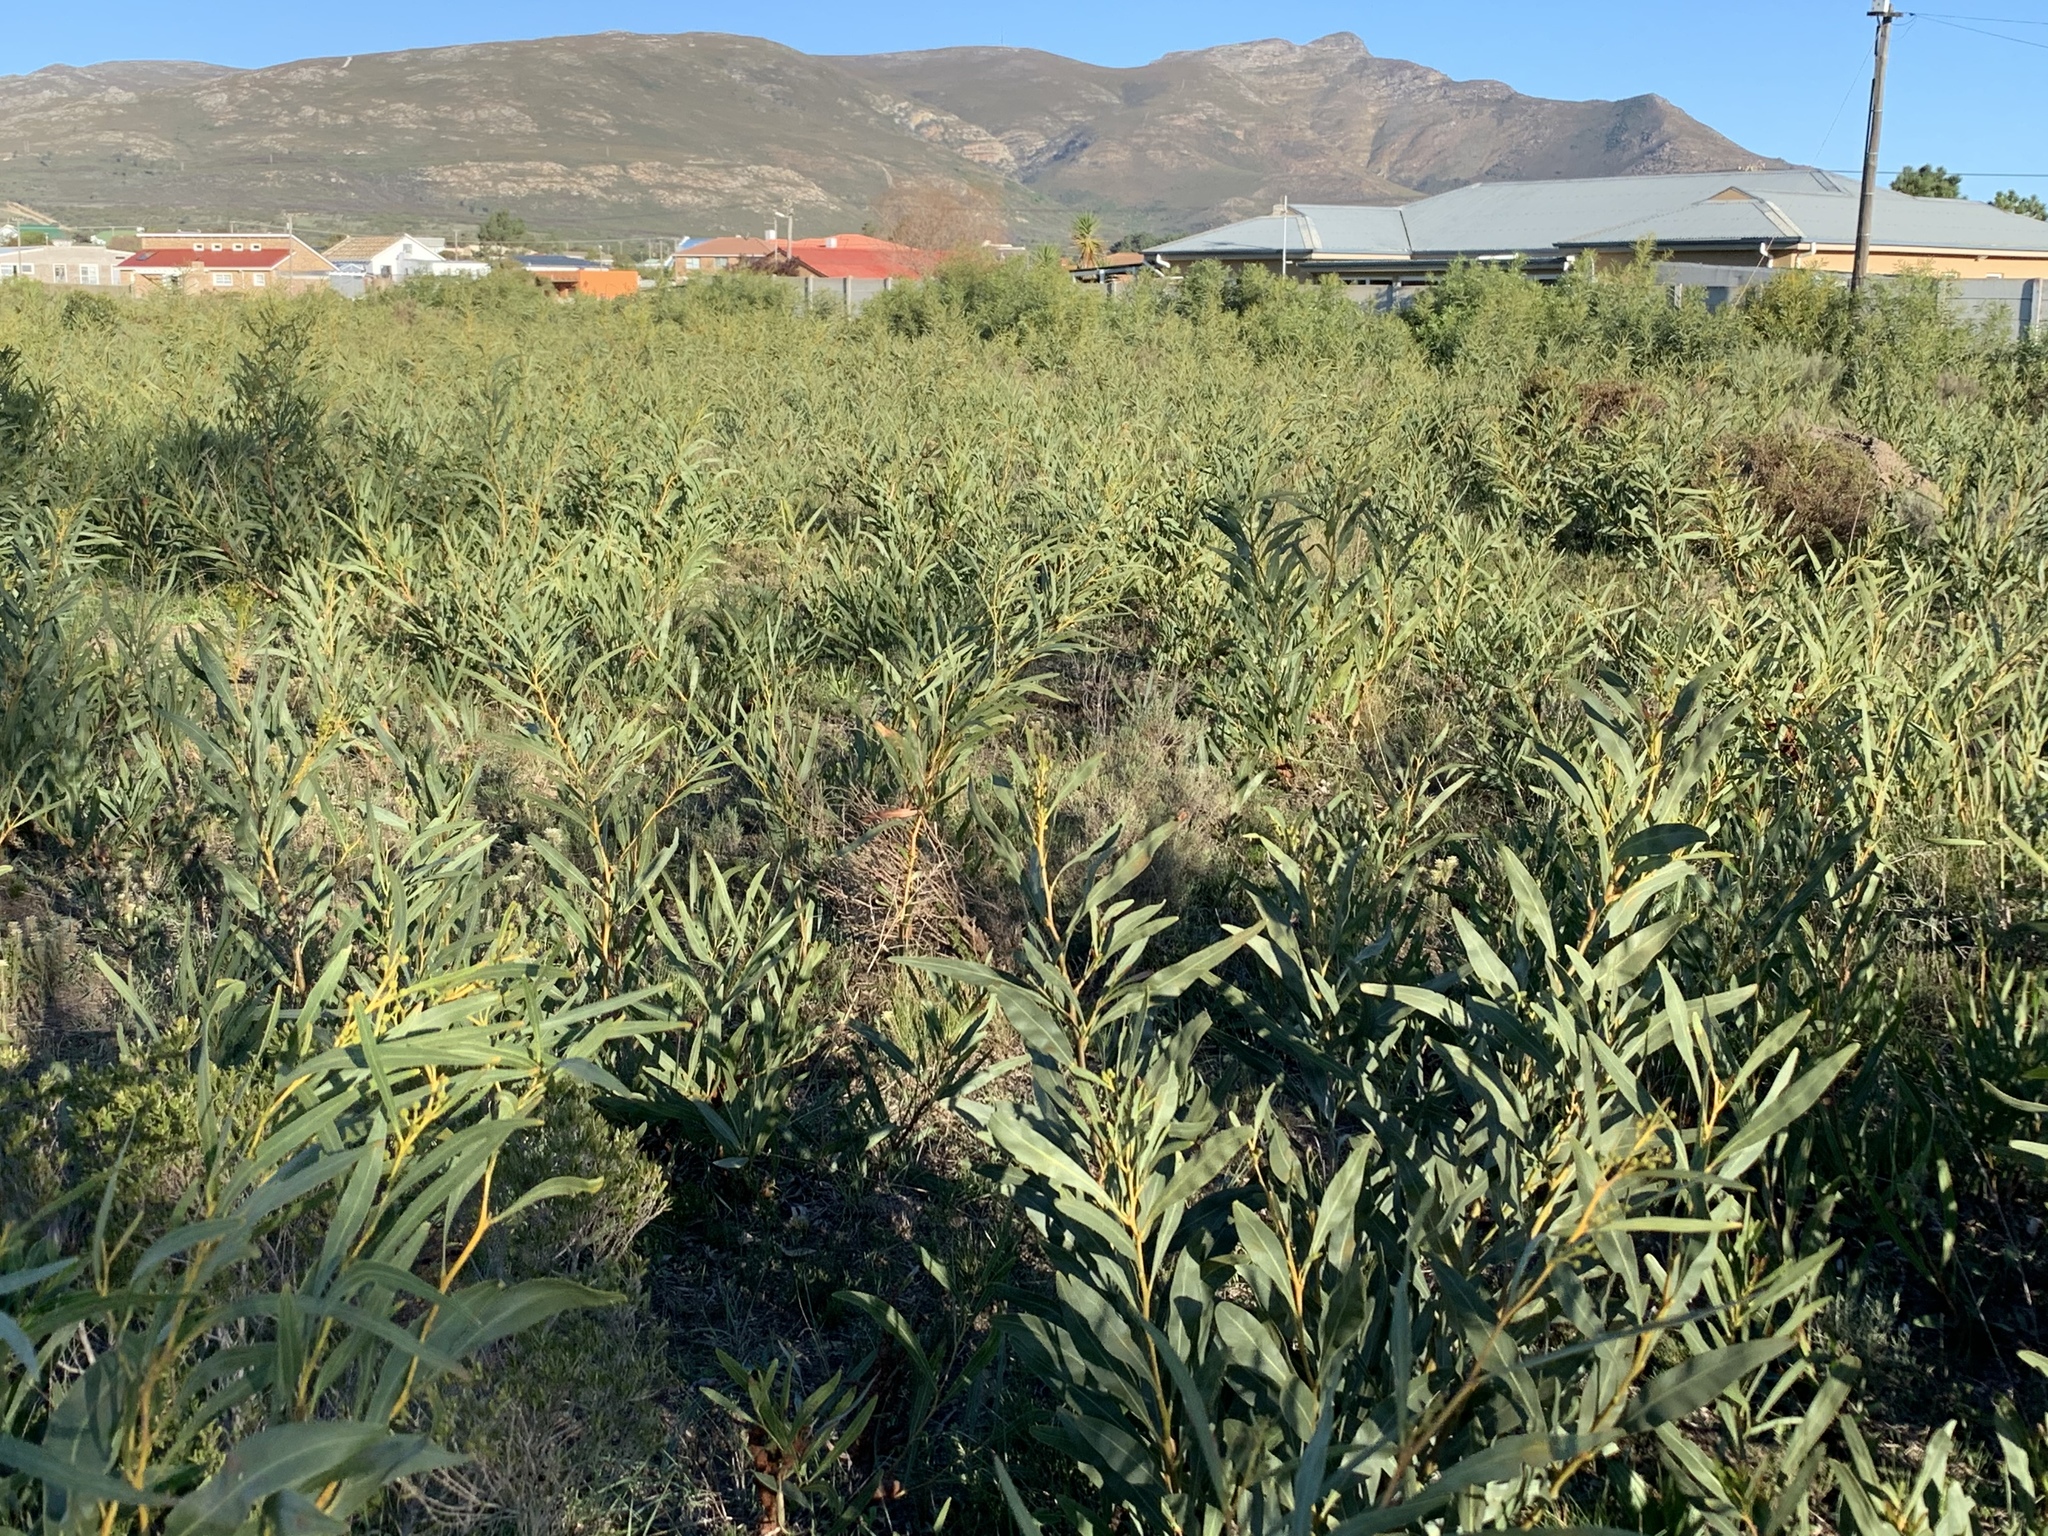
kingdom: Plantae
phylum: Tracheophyta
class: Magnoliopsida
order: Fabales
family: Fabaceae
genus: Acacia
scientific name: Acacia saligna
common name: Orange wattle
